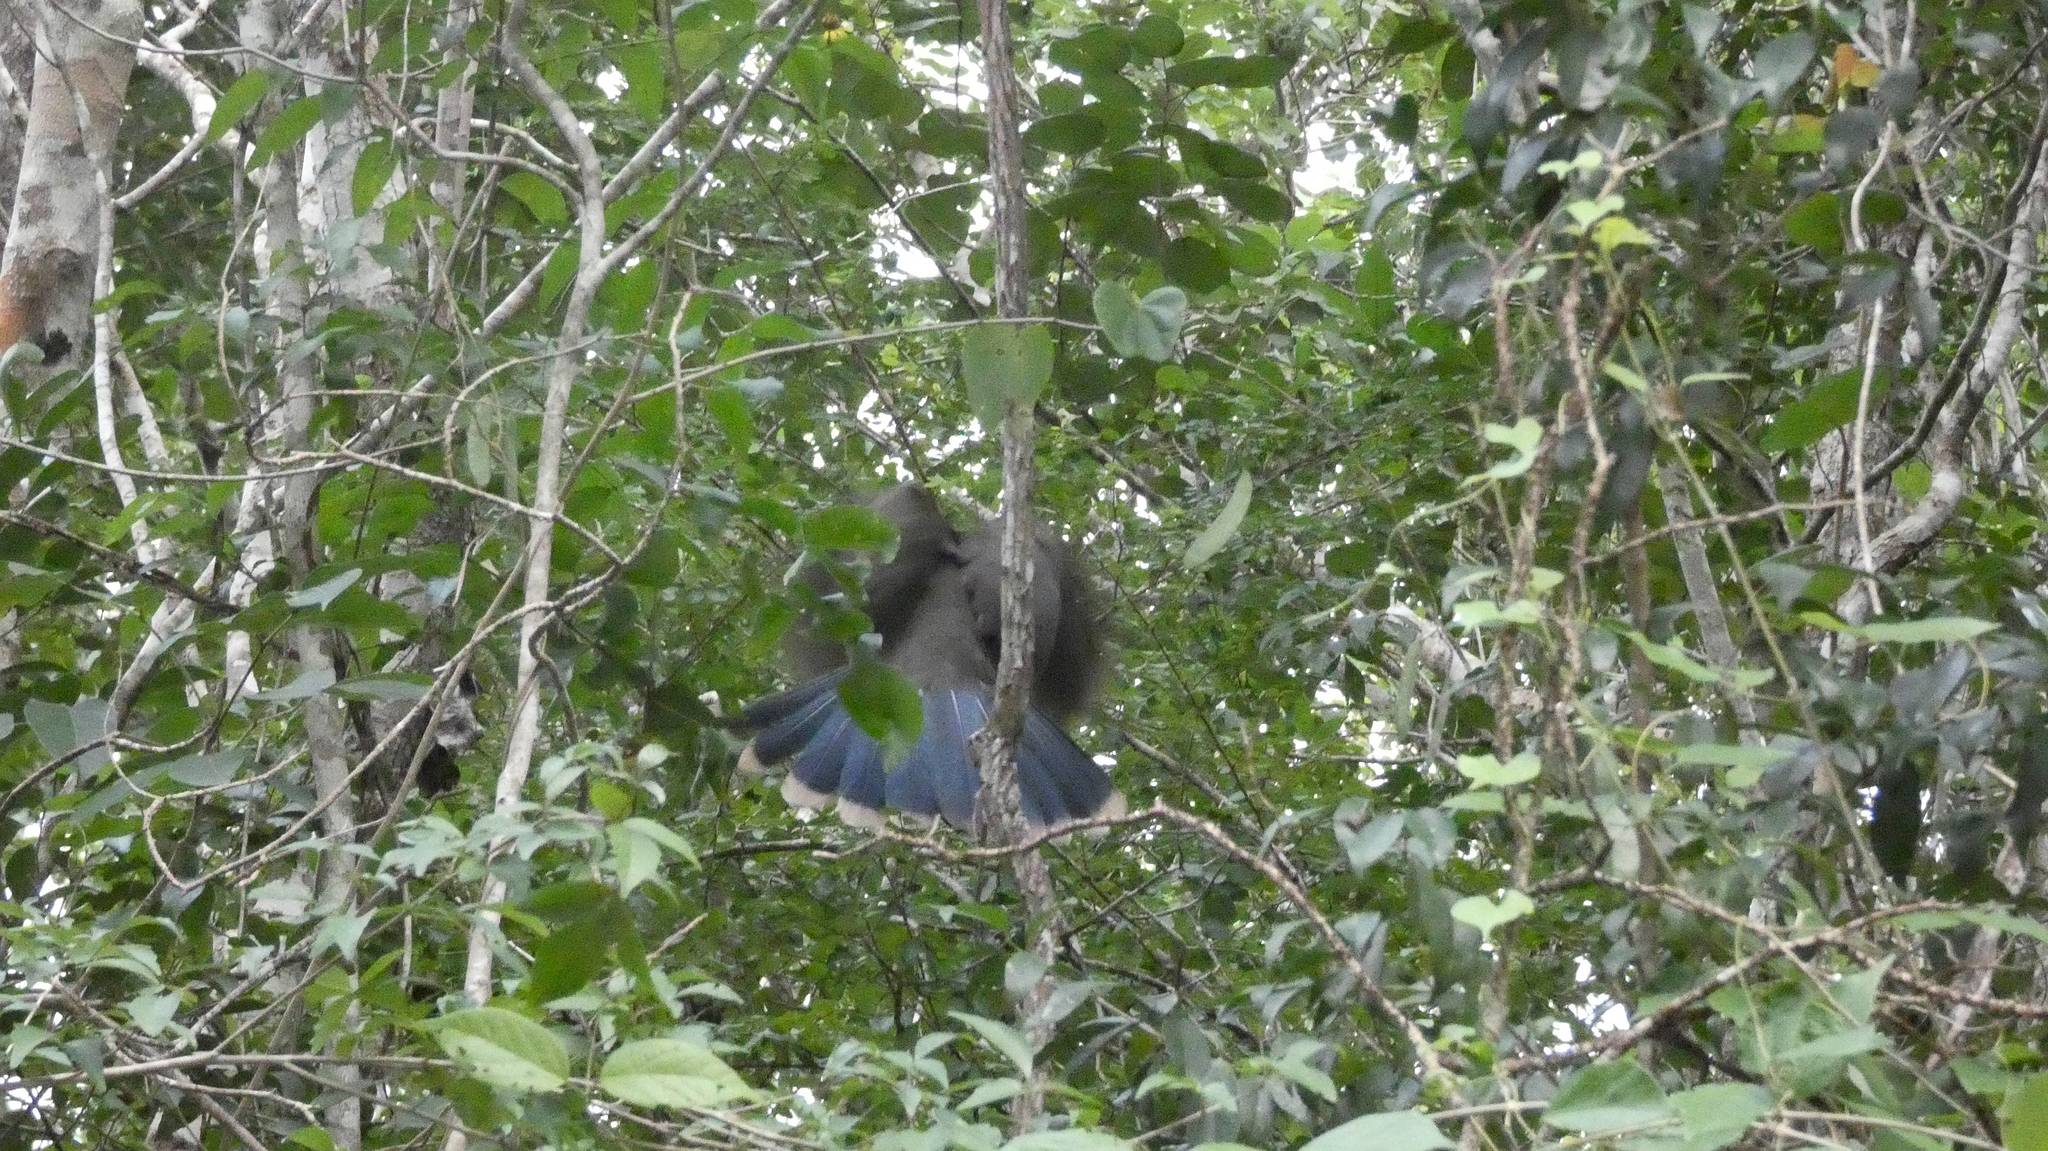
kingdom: Animalia
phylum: Chordata
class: Aves
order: Galliformes
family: Cracidae
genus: Ortalis
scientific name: Ortalis vetula
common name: Plain chachalaca
